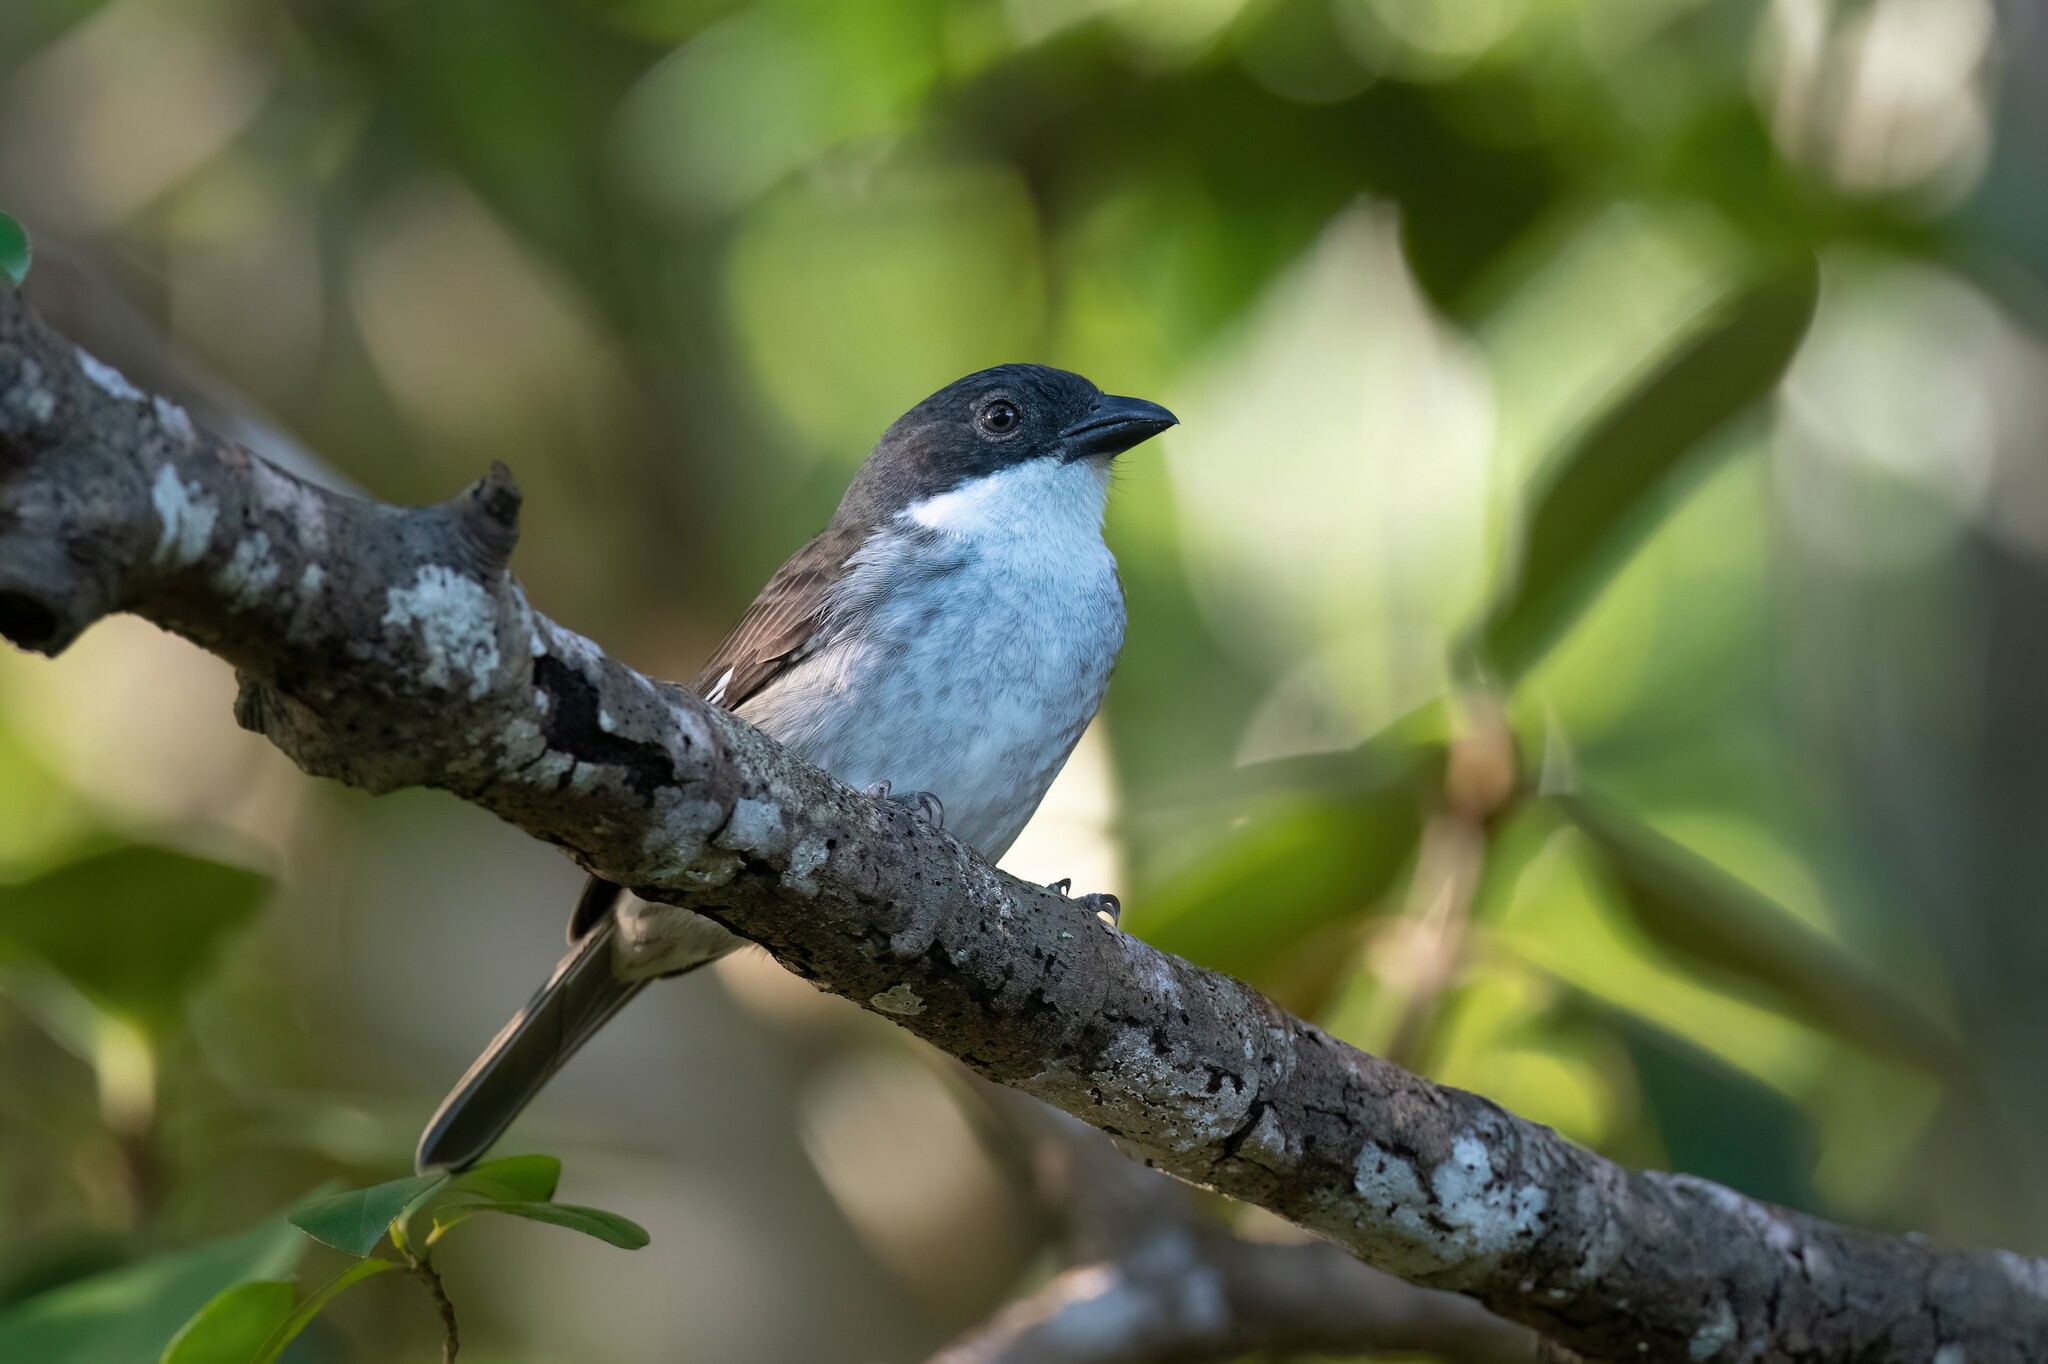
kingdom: Animalia
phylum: Chordata
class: Aves
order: Passeriformes
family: Nesospingidae
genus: Nesospingus
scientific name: Nesospingus speculiferus
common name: Puerto rican tanager
